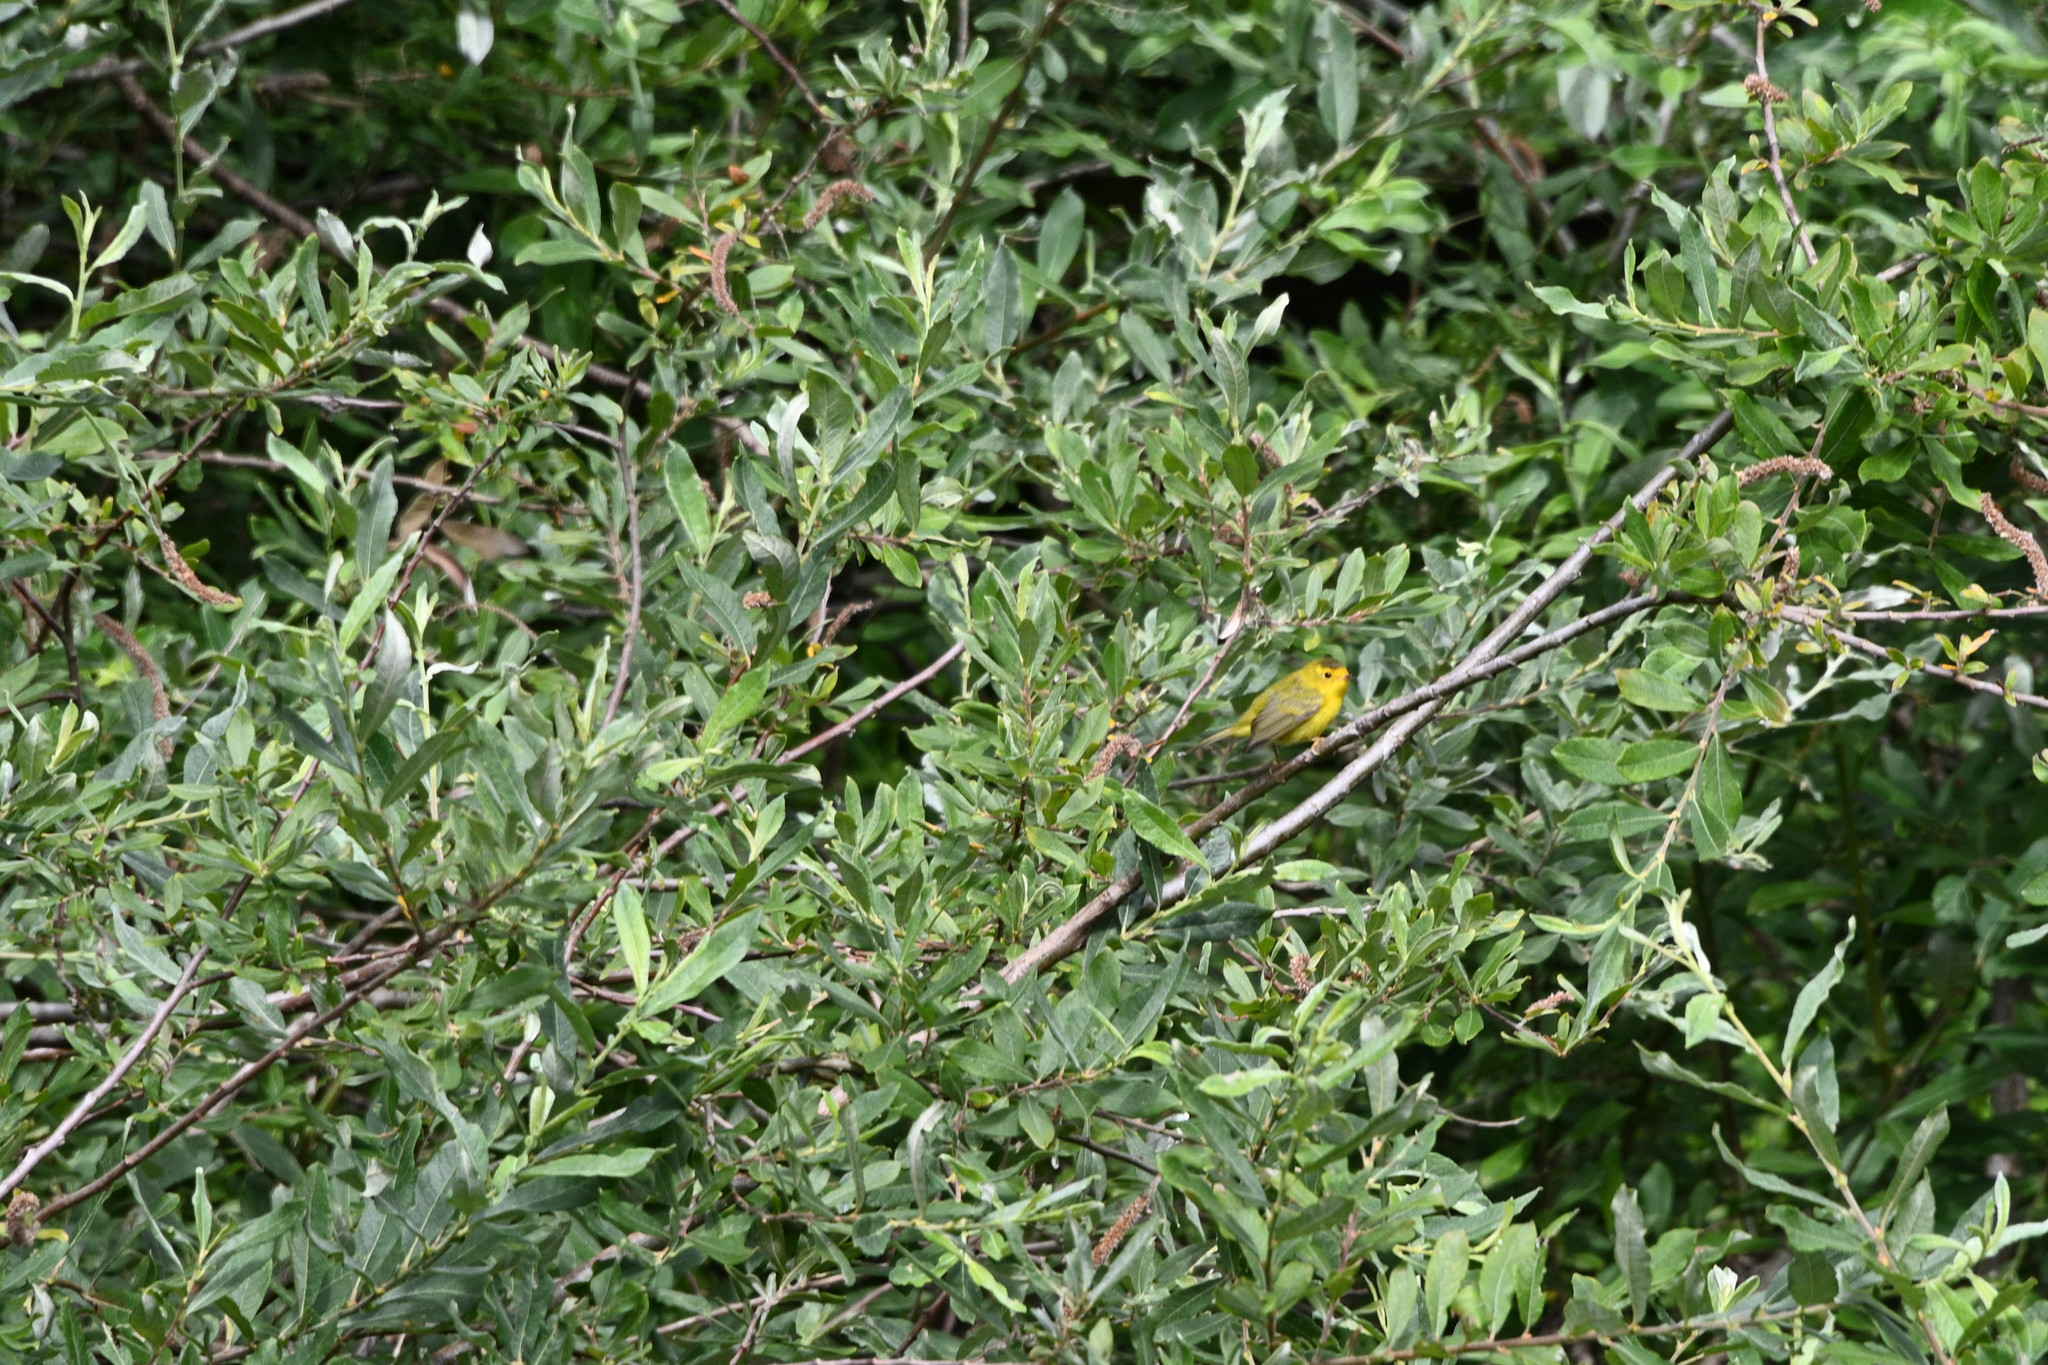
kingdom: Animalia
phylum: Chordata
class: Aves
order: Passeriformes
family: Parulidae
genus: Cardellina
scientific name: Cardellina pusilla
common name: Wilson's warbler
